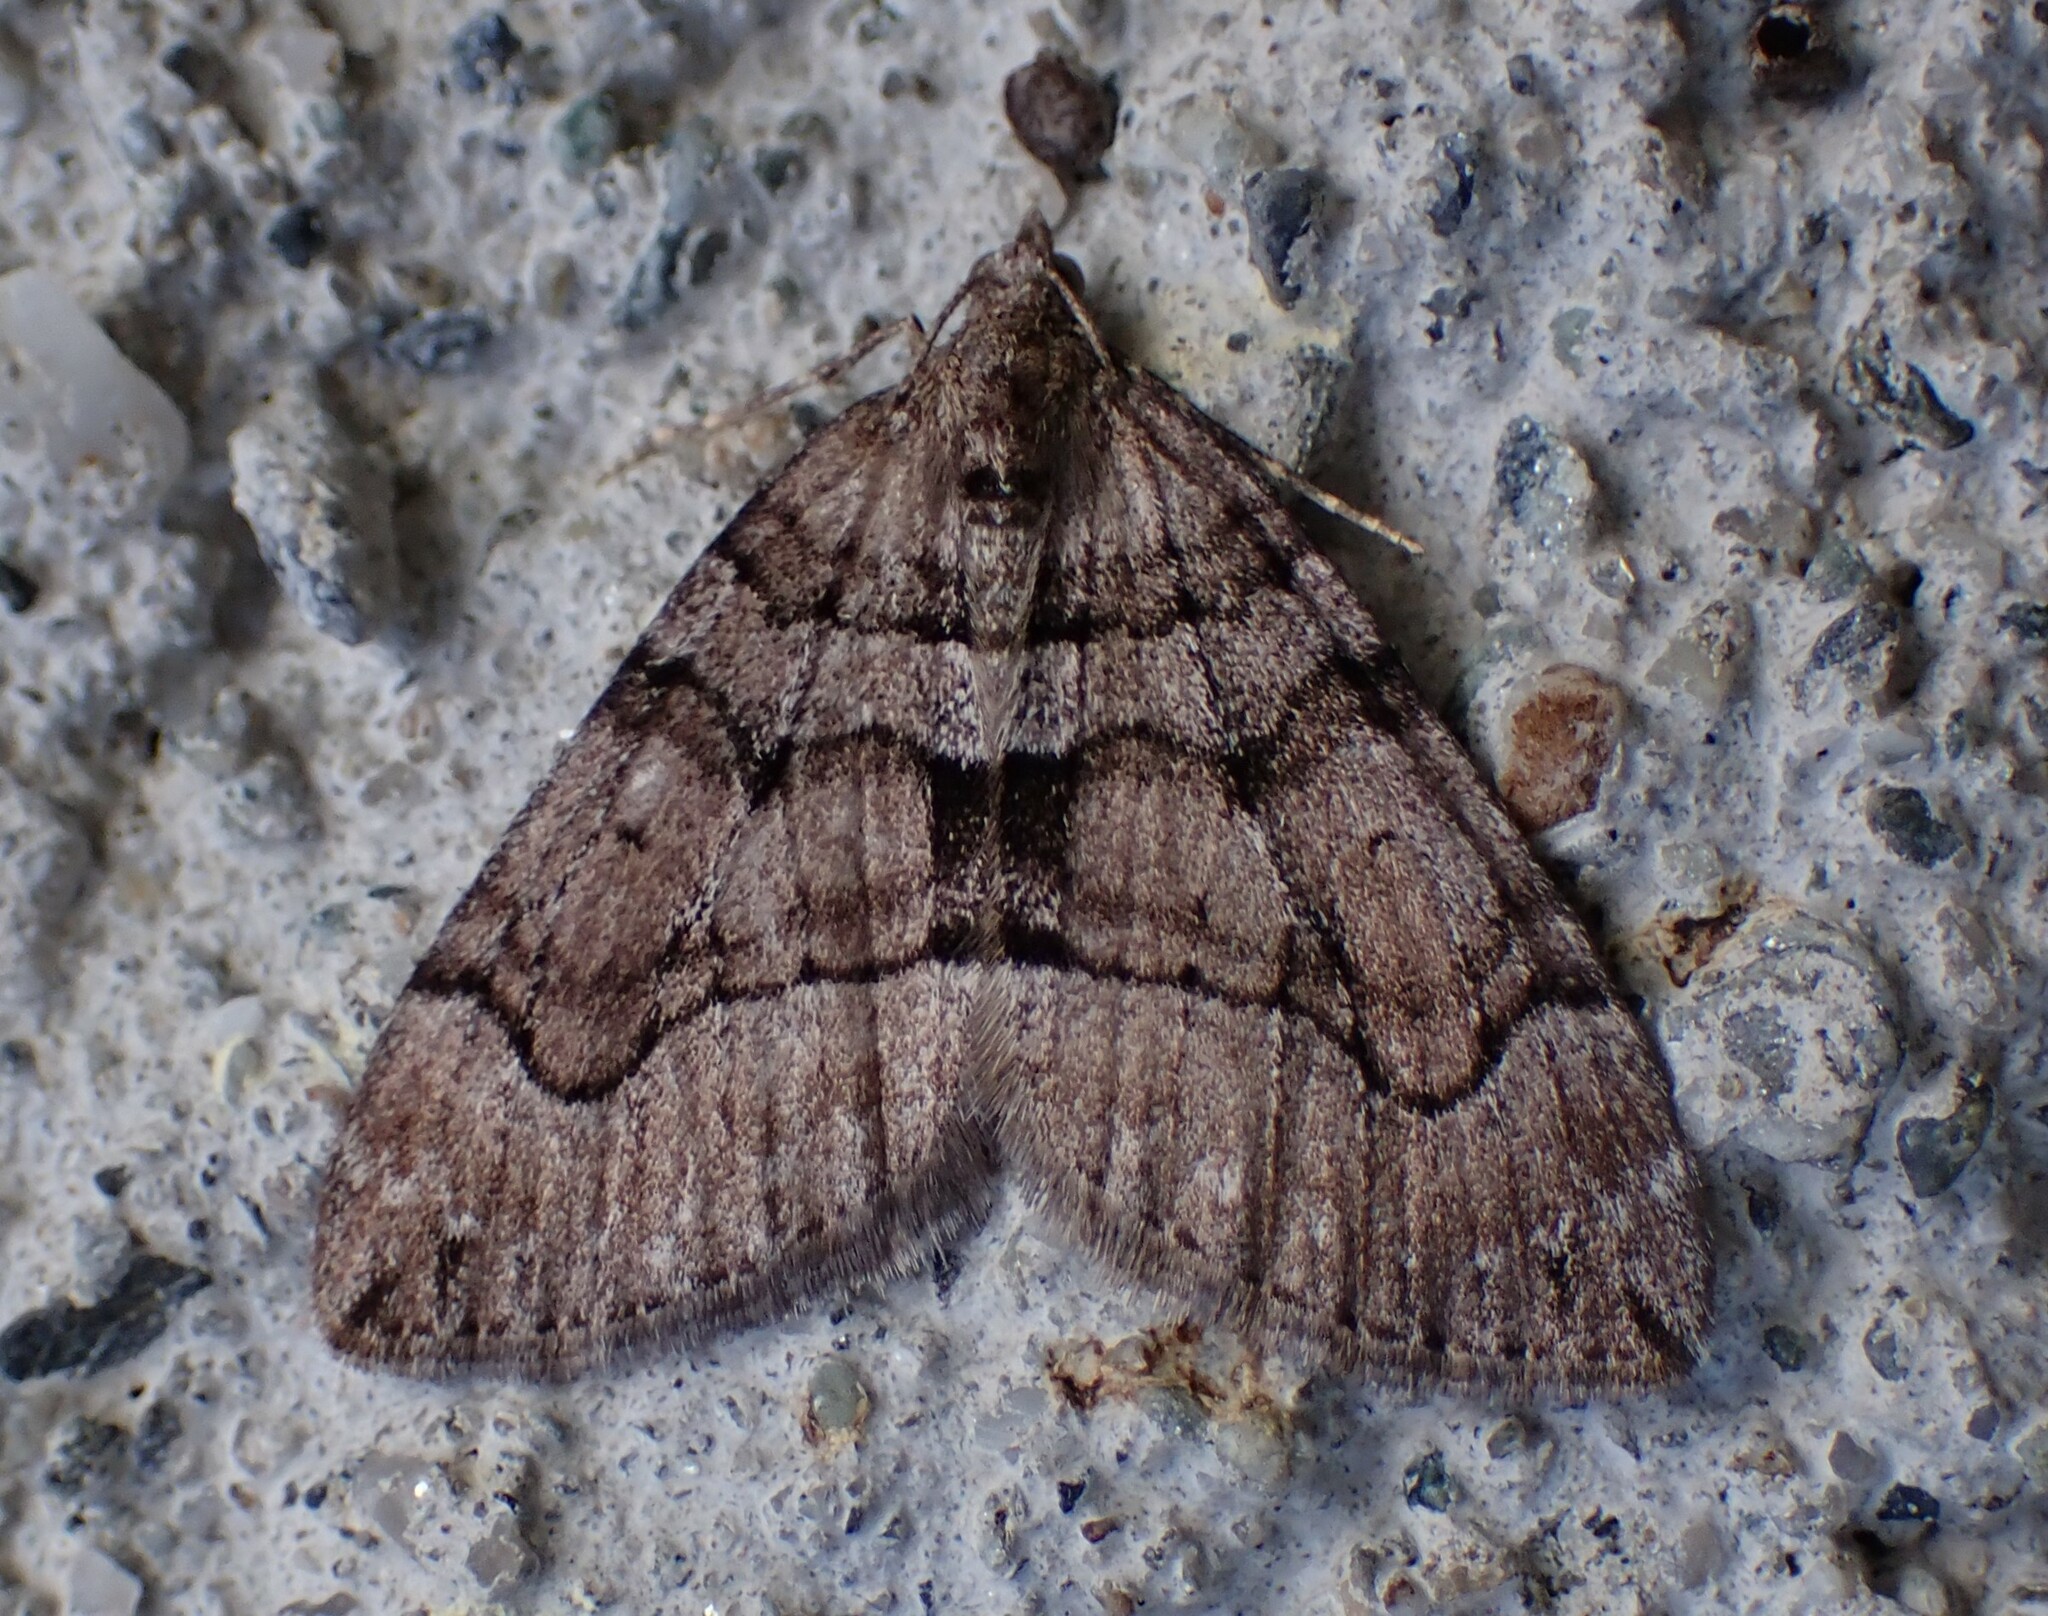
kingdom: Animalia
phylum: Arthropoda
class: Insecta
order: Lepidoptera
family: Geometridae
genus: Thera
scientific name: Thera cognata
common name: Chestnut-coloured carpet
